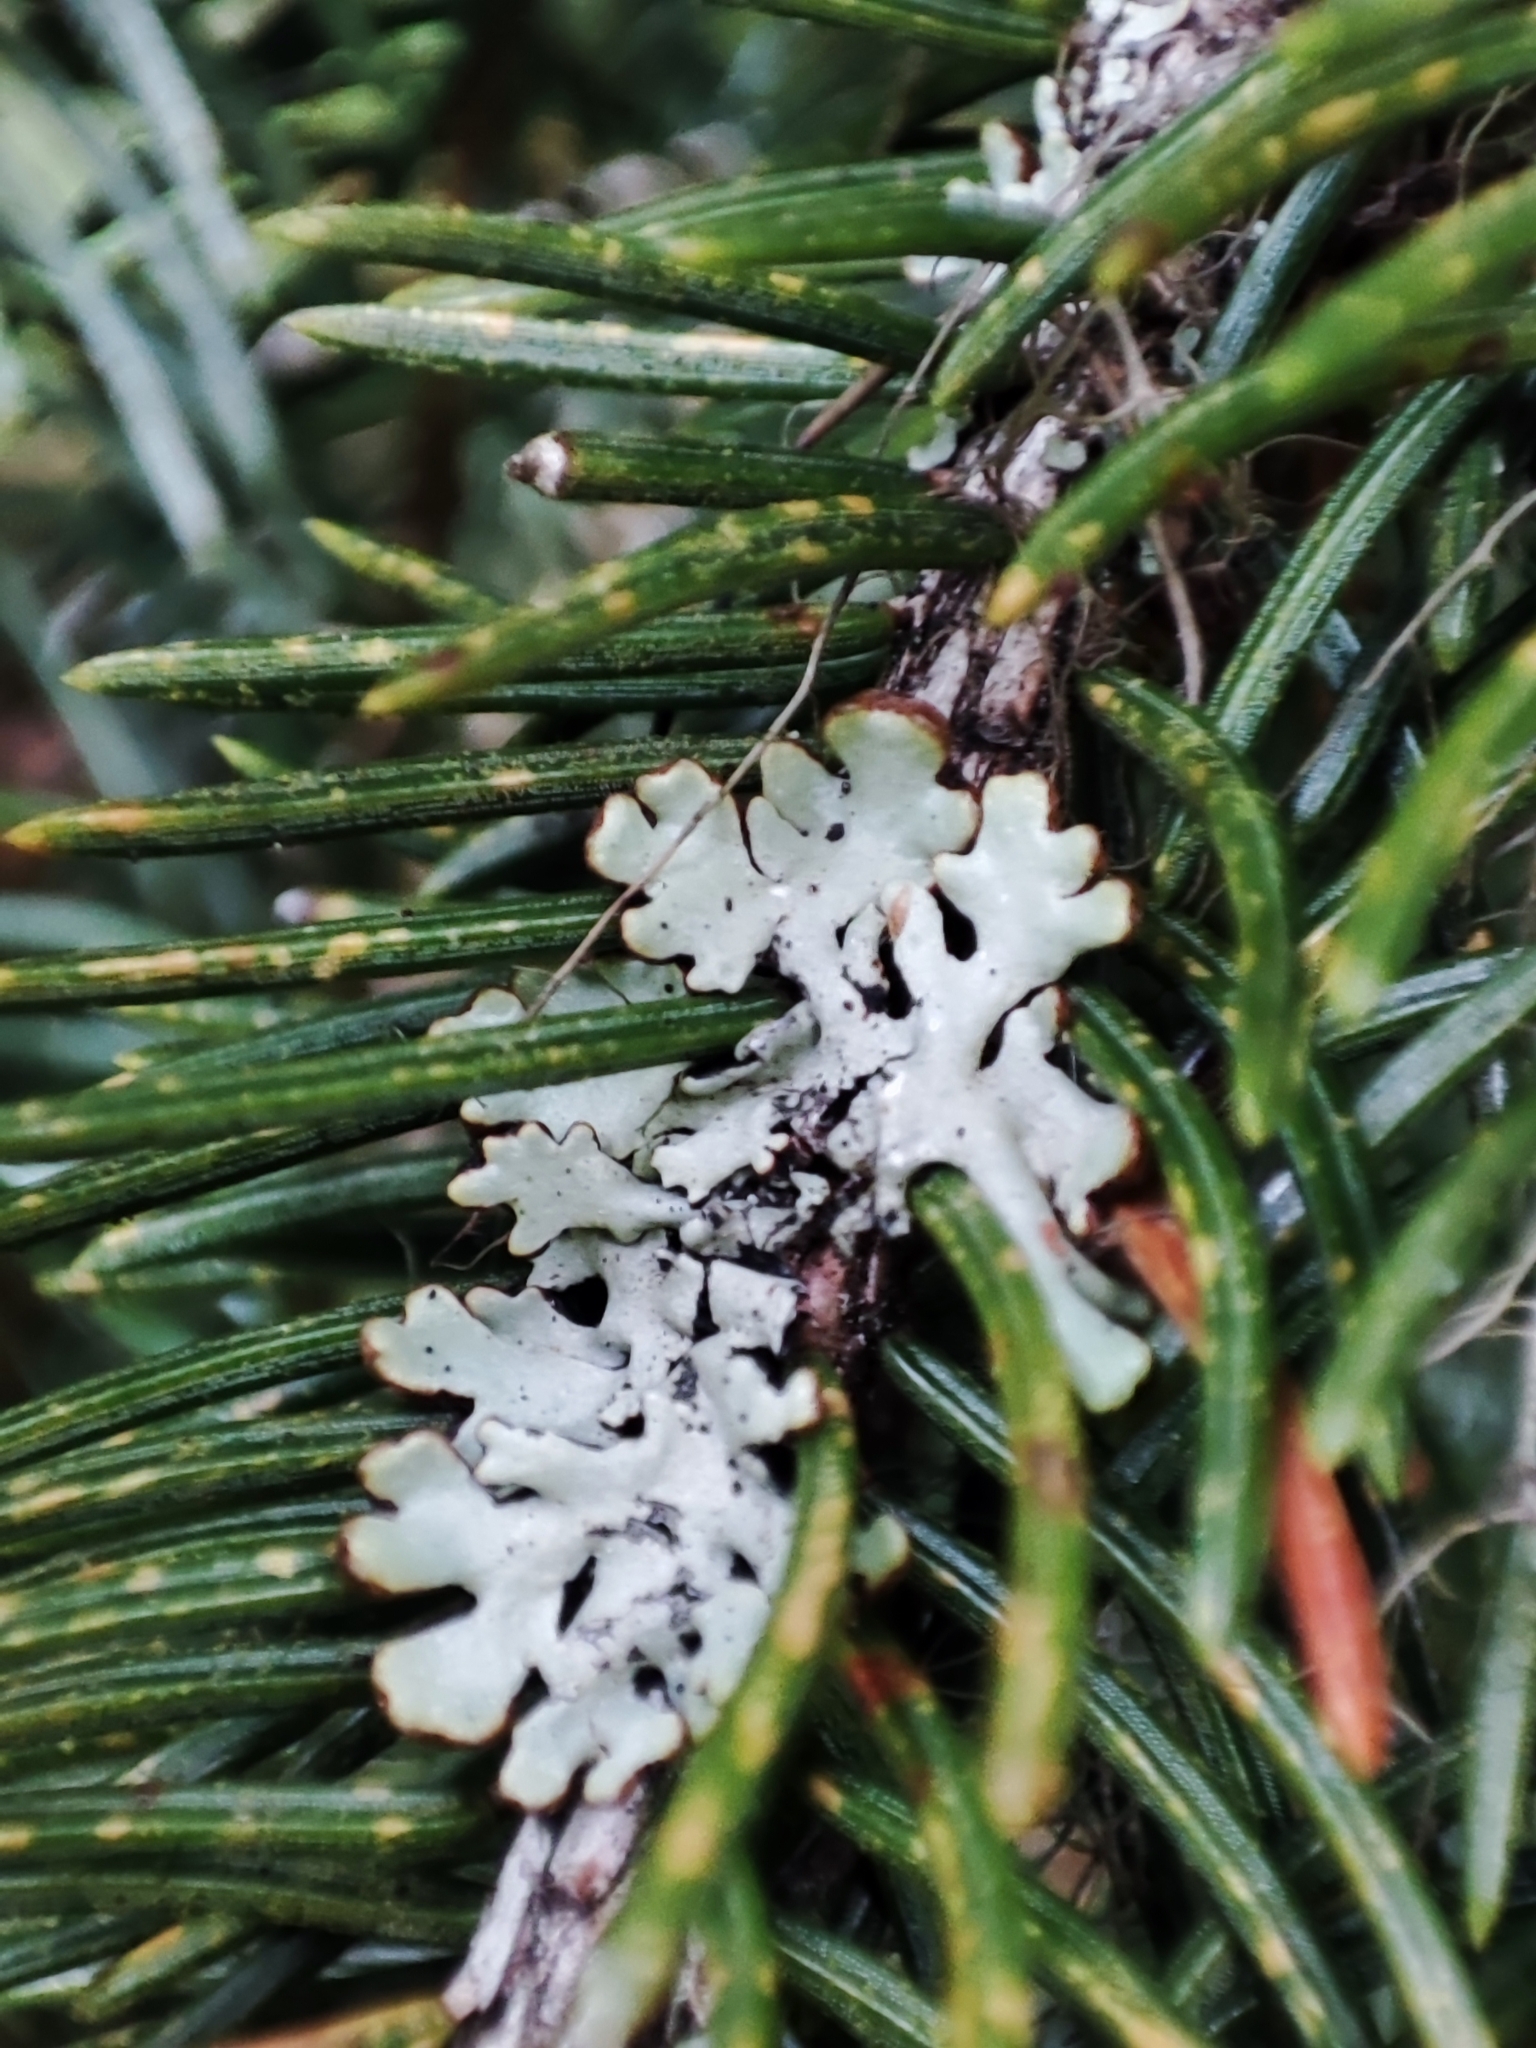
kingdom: Fungi
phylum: Ascomycota
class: Lecanoromycetes
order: Lecanorales
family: Parmeliaceae
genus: Hypogymnia
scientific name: Hypogymnia physodes
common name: Dark crottle
